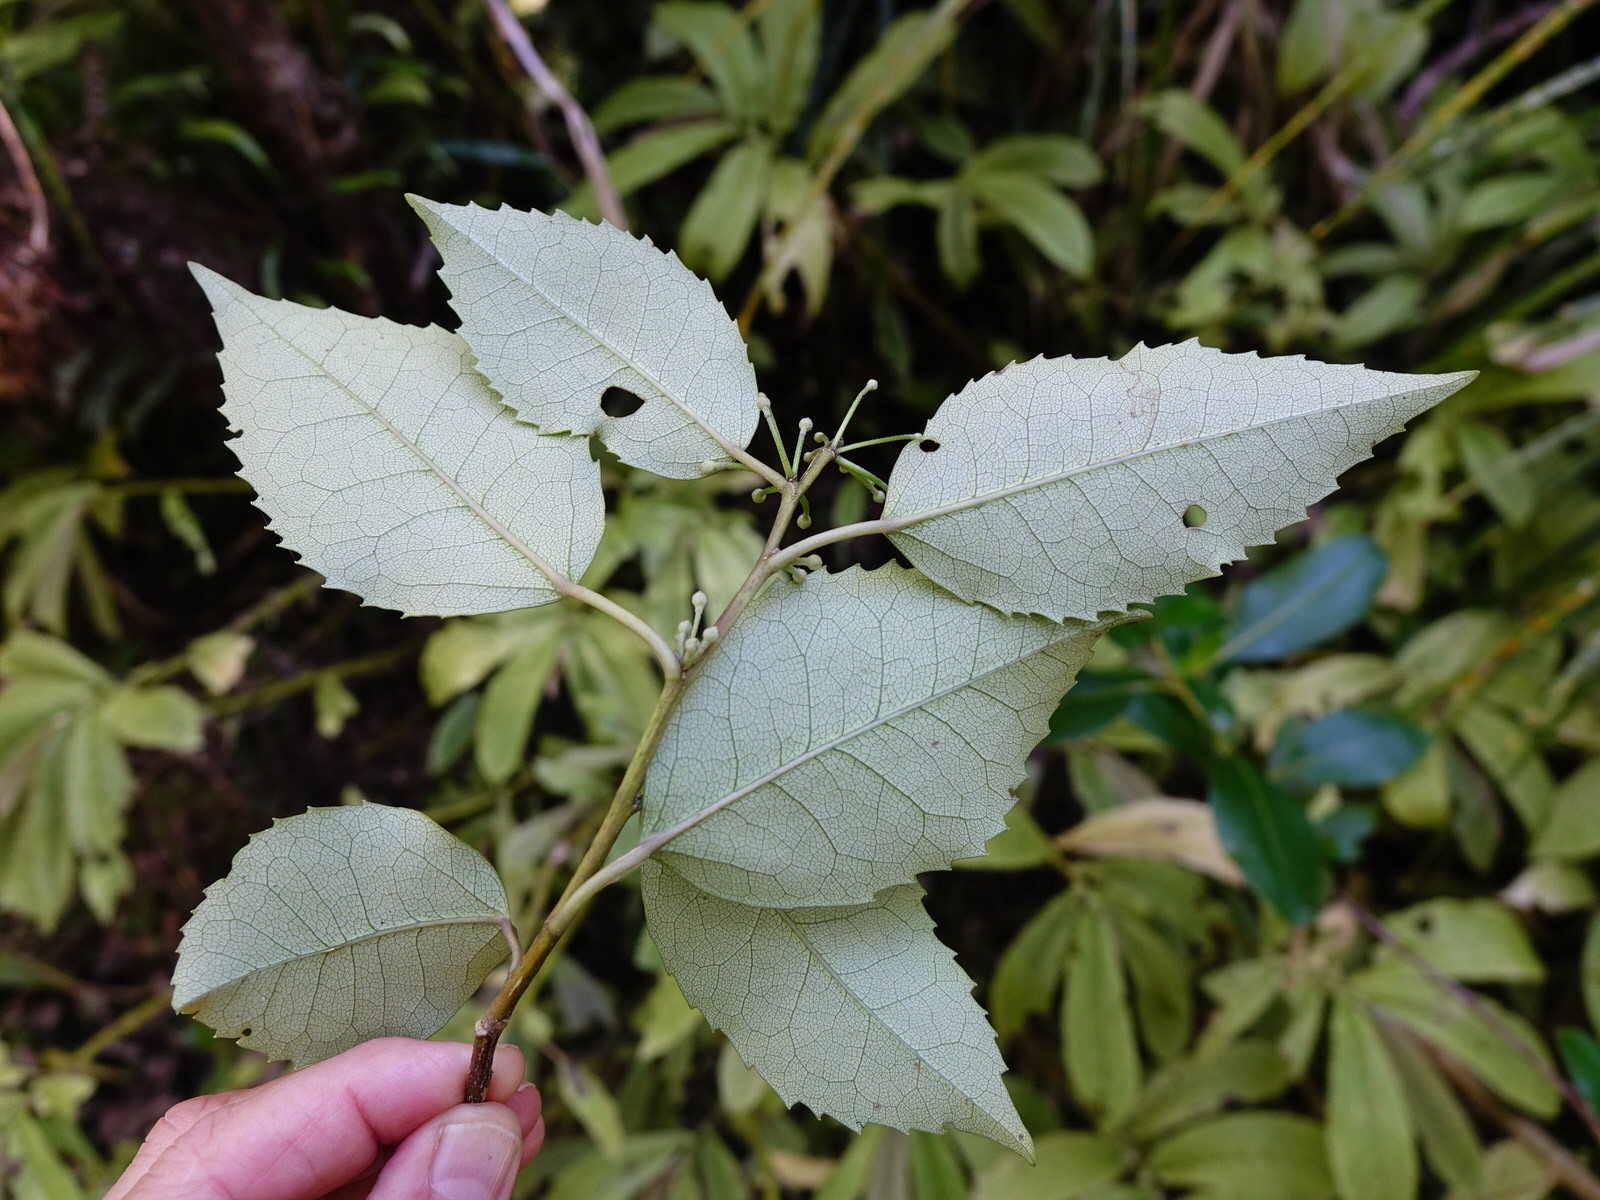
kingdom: Plantae
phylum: Tracheophyta
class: Magnoliopsida
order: Malvales
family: Malvaceae
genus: Hoheria
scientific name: Hoheria populnea
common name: Lacebark
